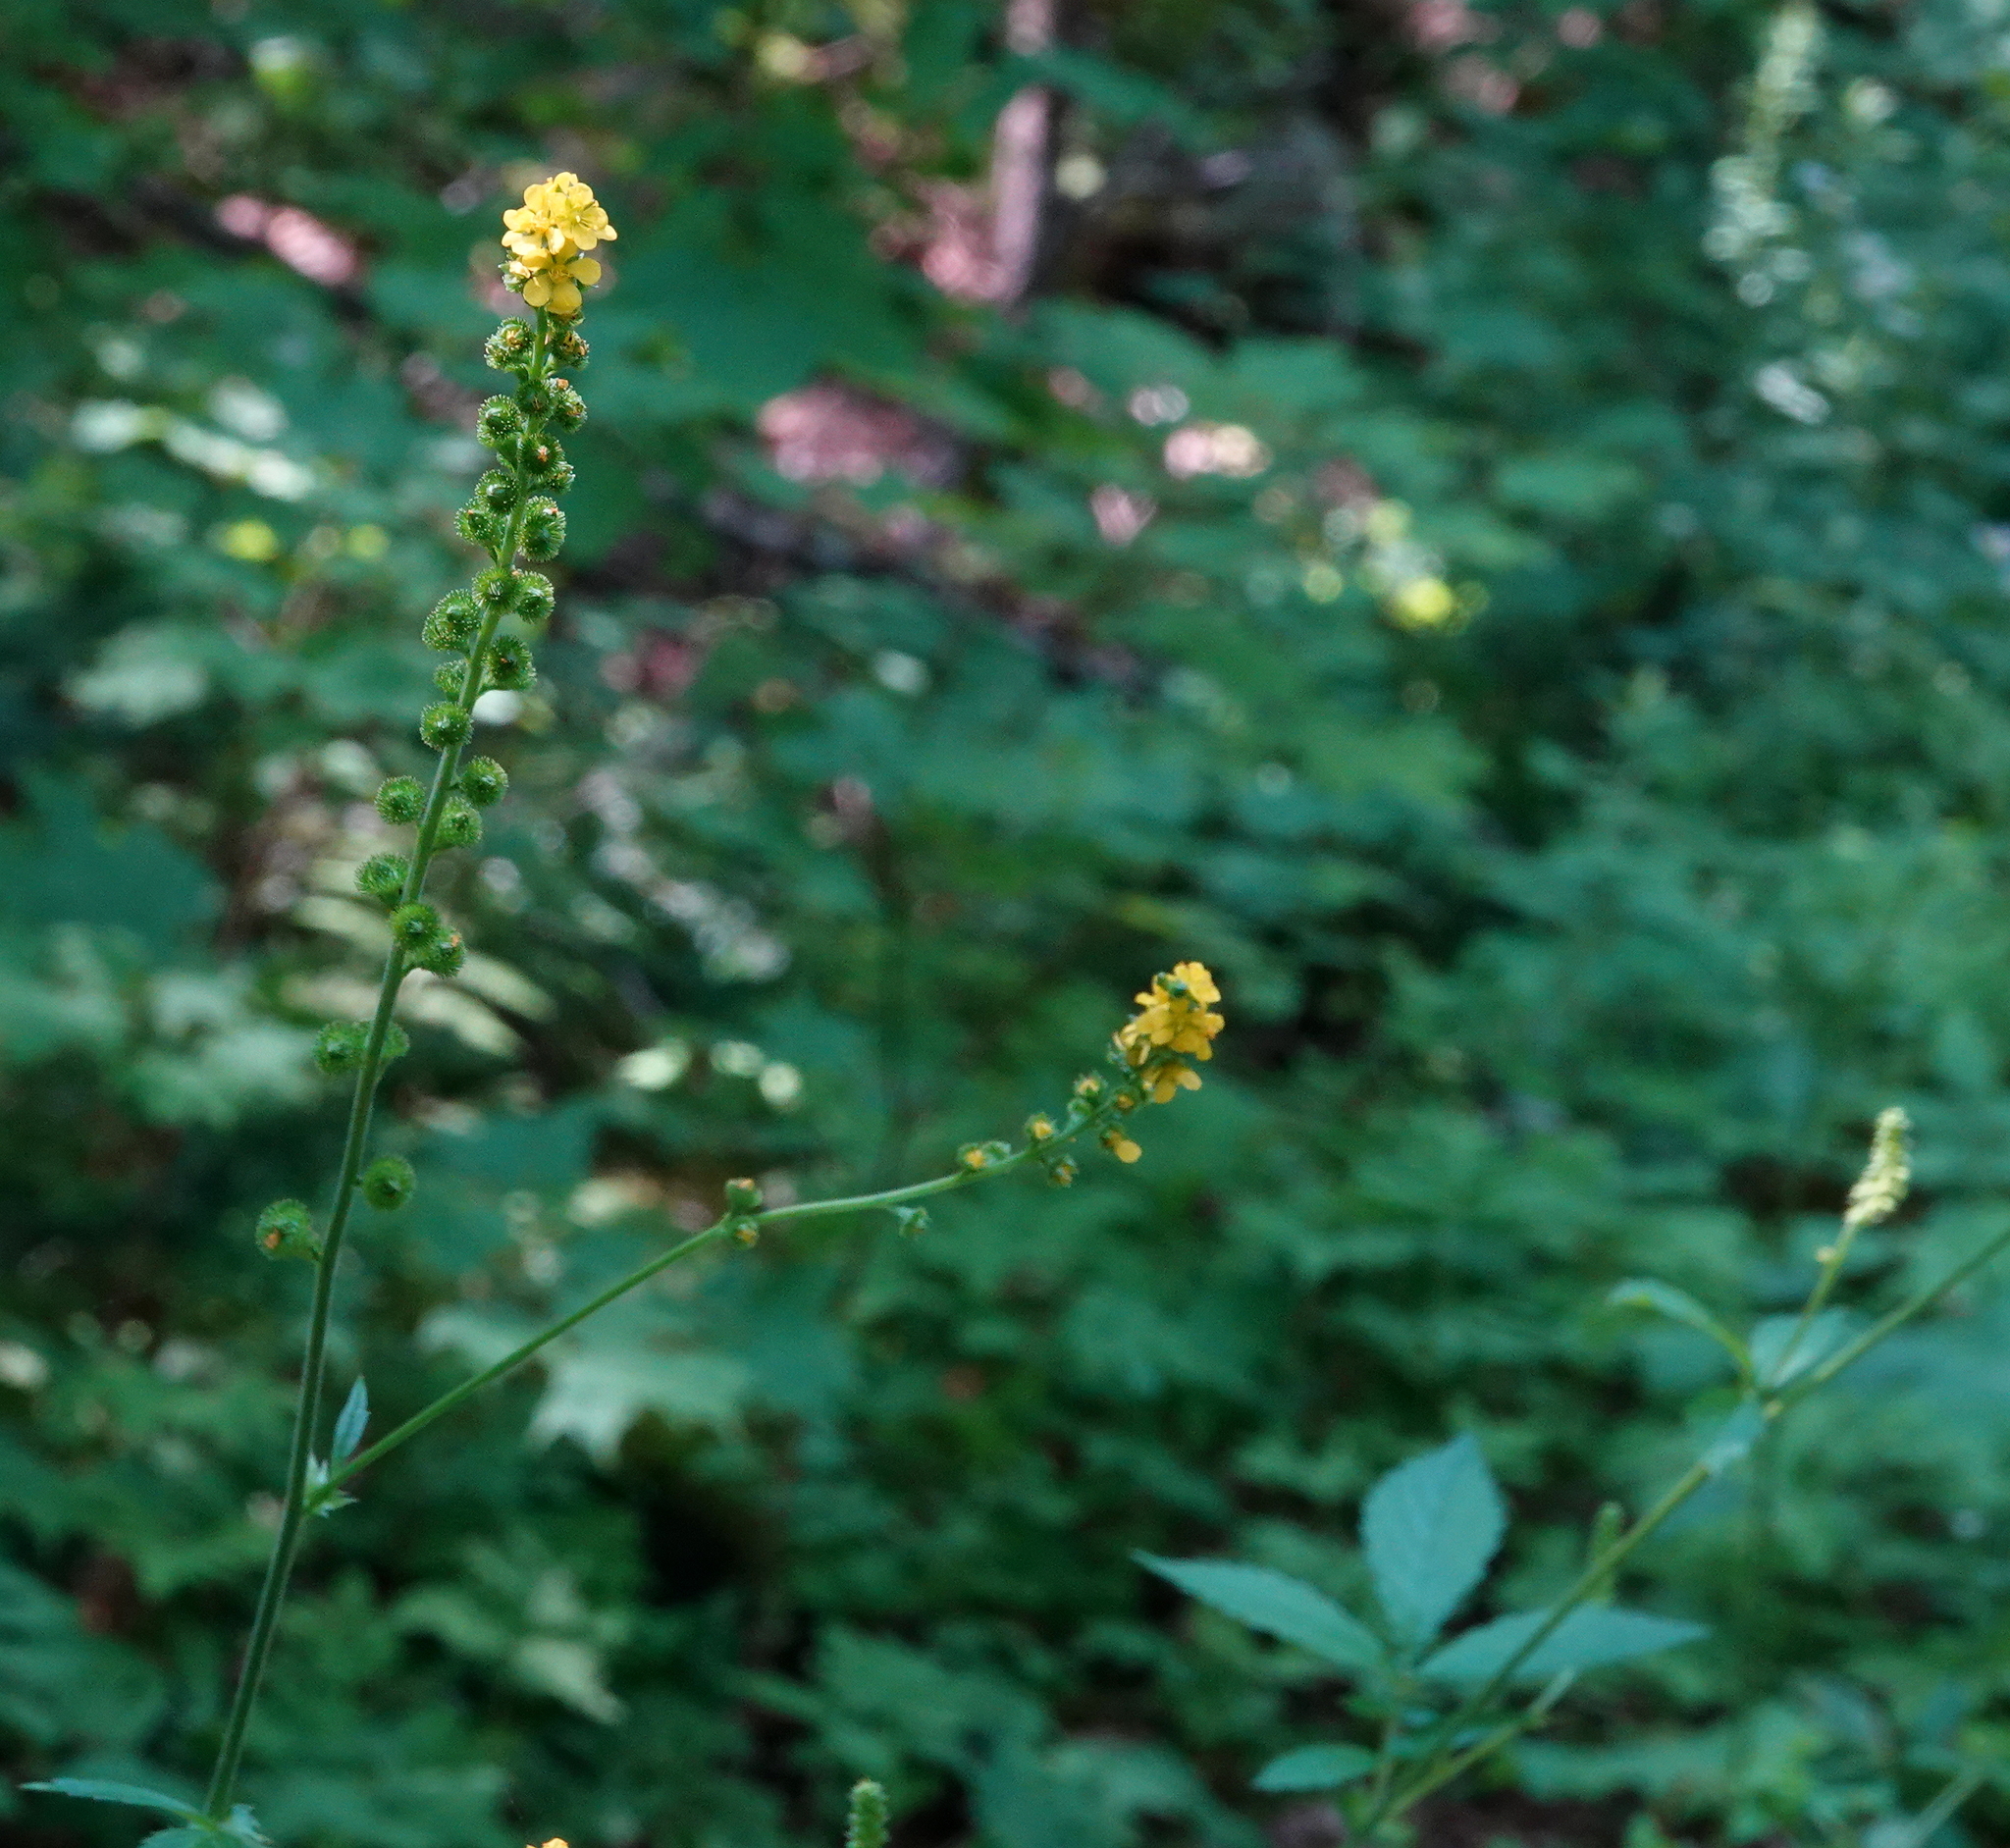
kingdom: Plantae
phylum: Tracheophyta
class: Magnoliopsida
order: Rosales
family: Rosaceae
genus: Agrimonia
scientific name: Agrimonia striata
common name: Britton's agrimony
